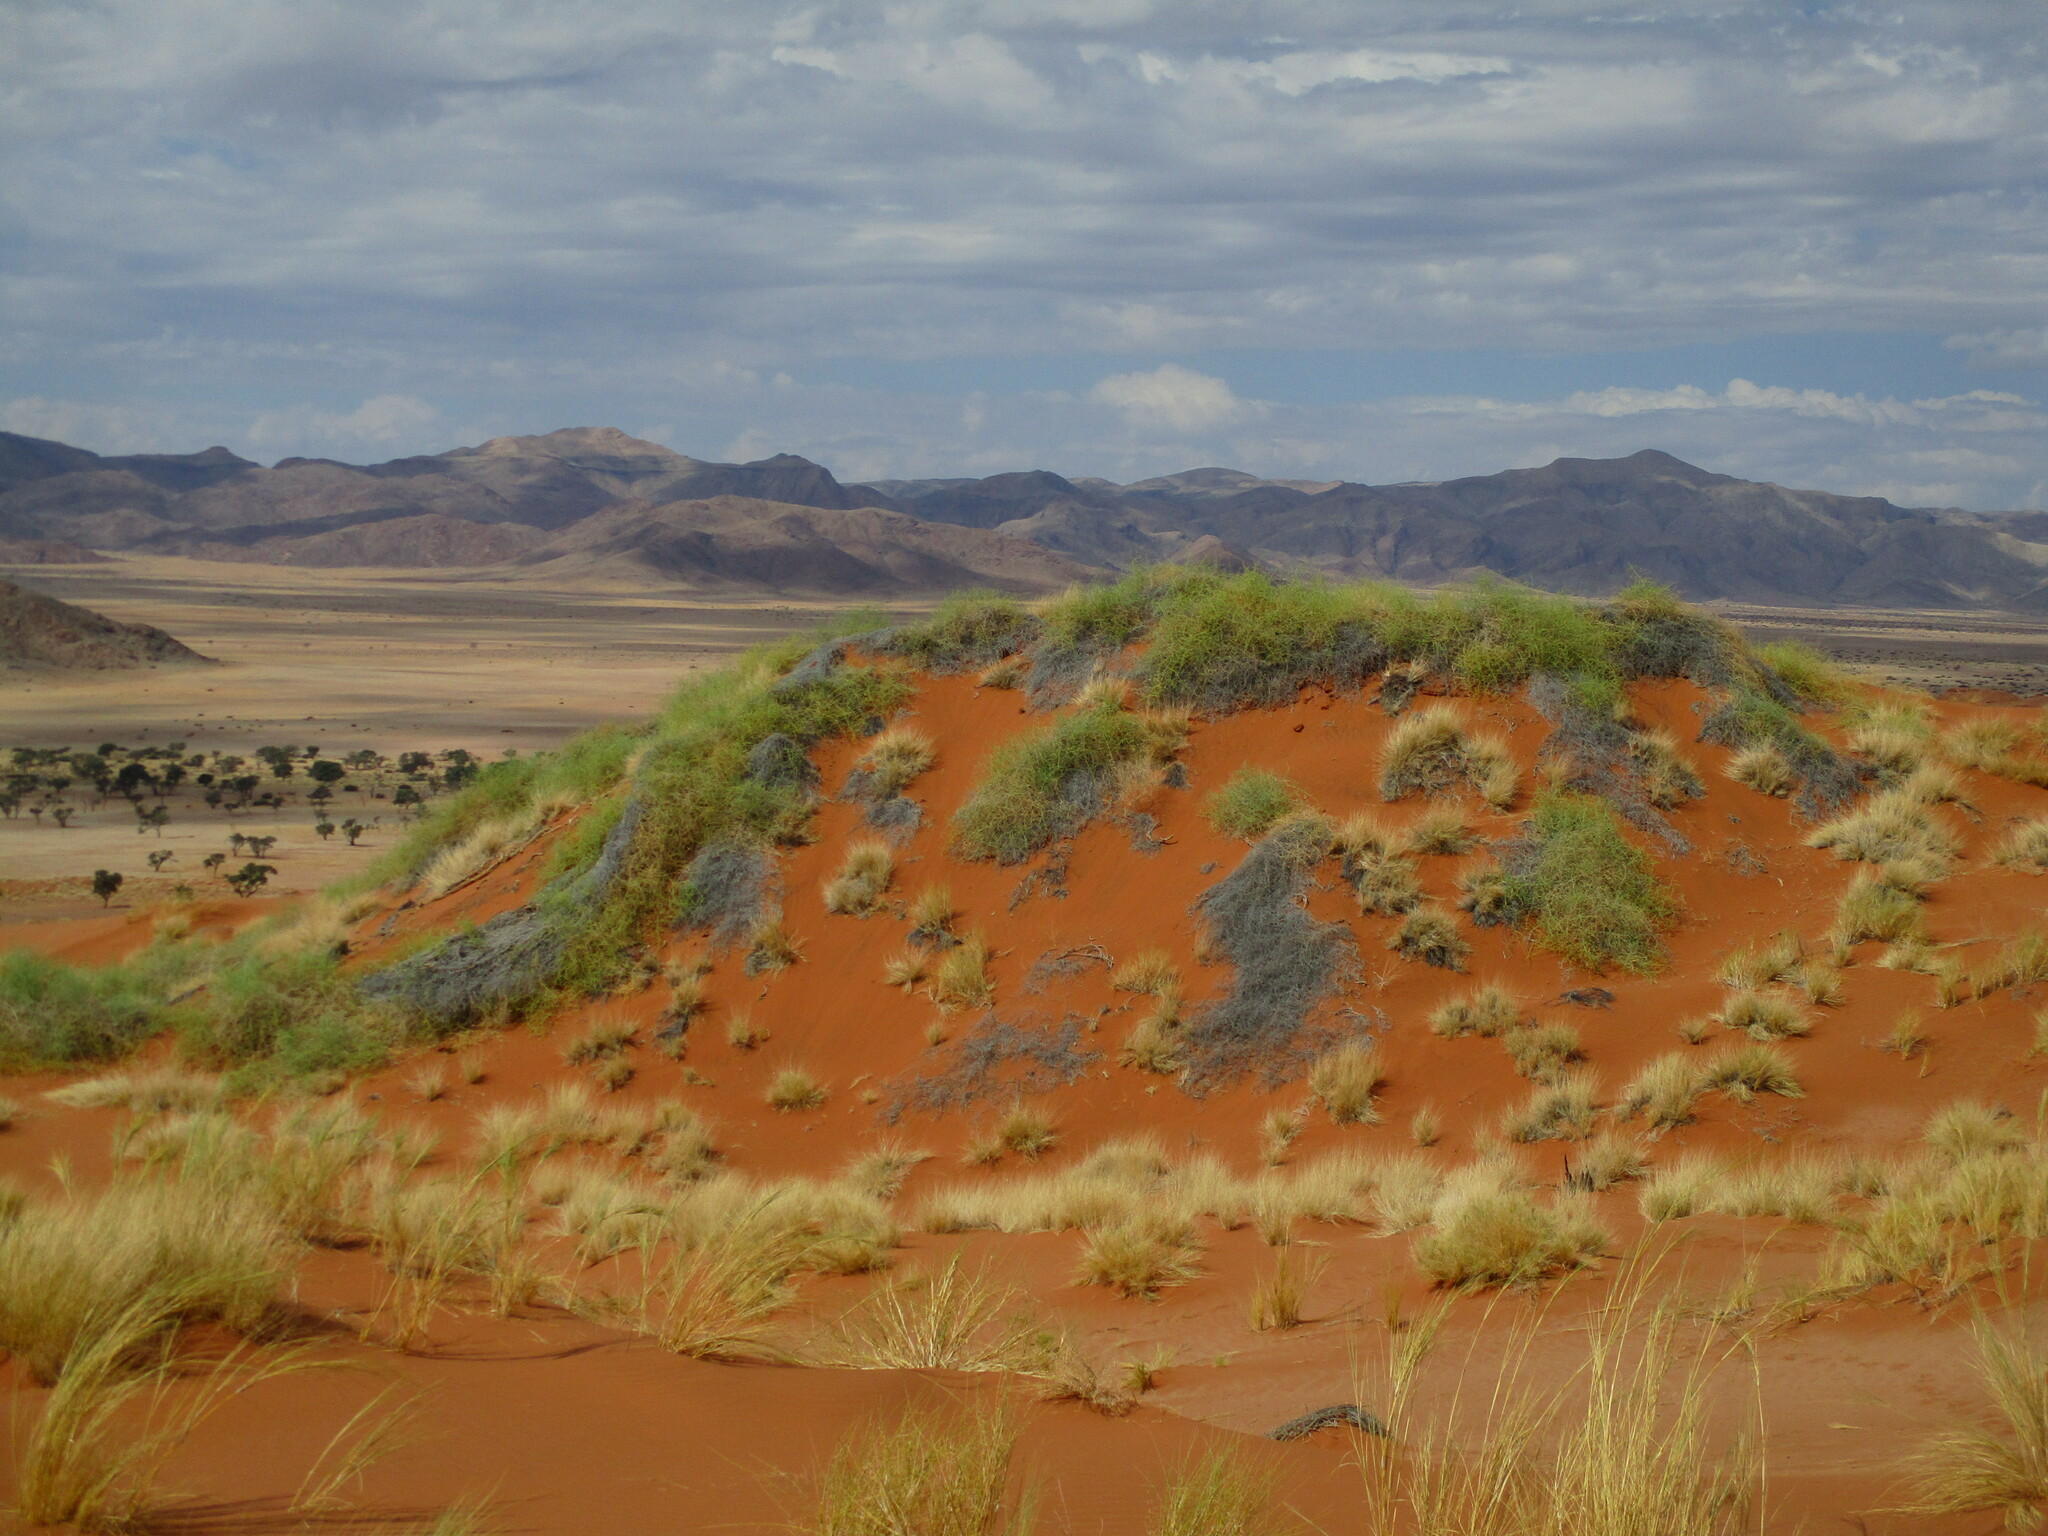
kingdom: Plantae
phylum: Tracheophyta
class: Magnoliopsida
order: Cucurbitales
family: Cucurbitaceae
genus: Acanthosicyos
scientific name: Acanthosicyos horridus
